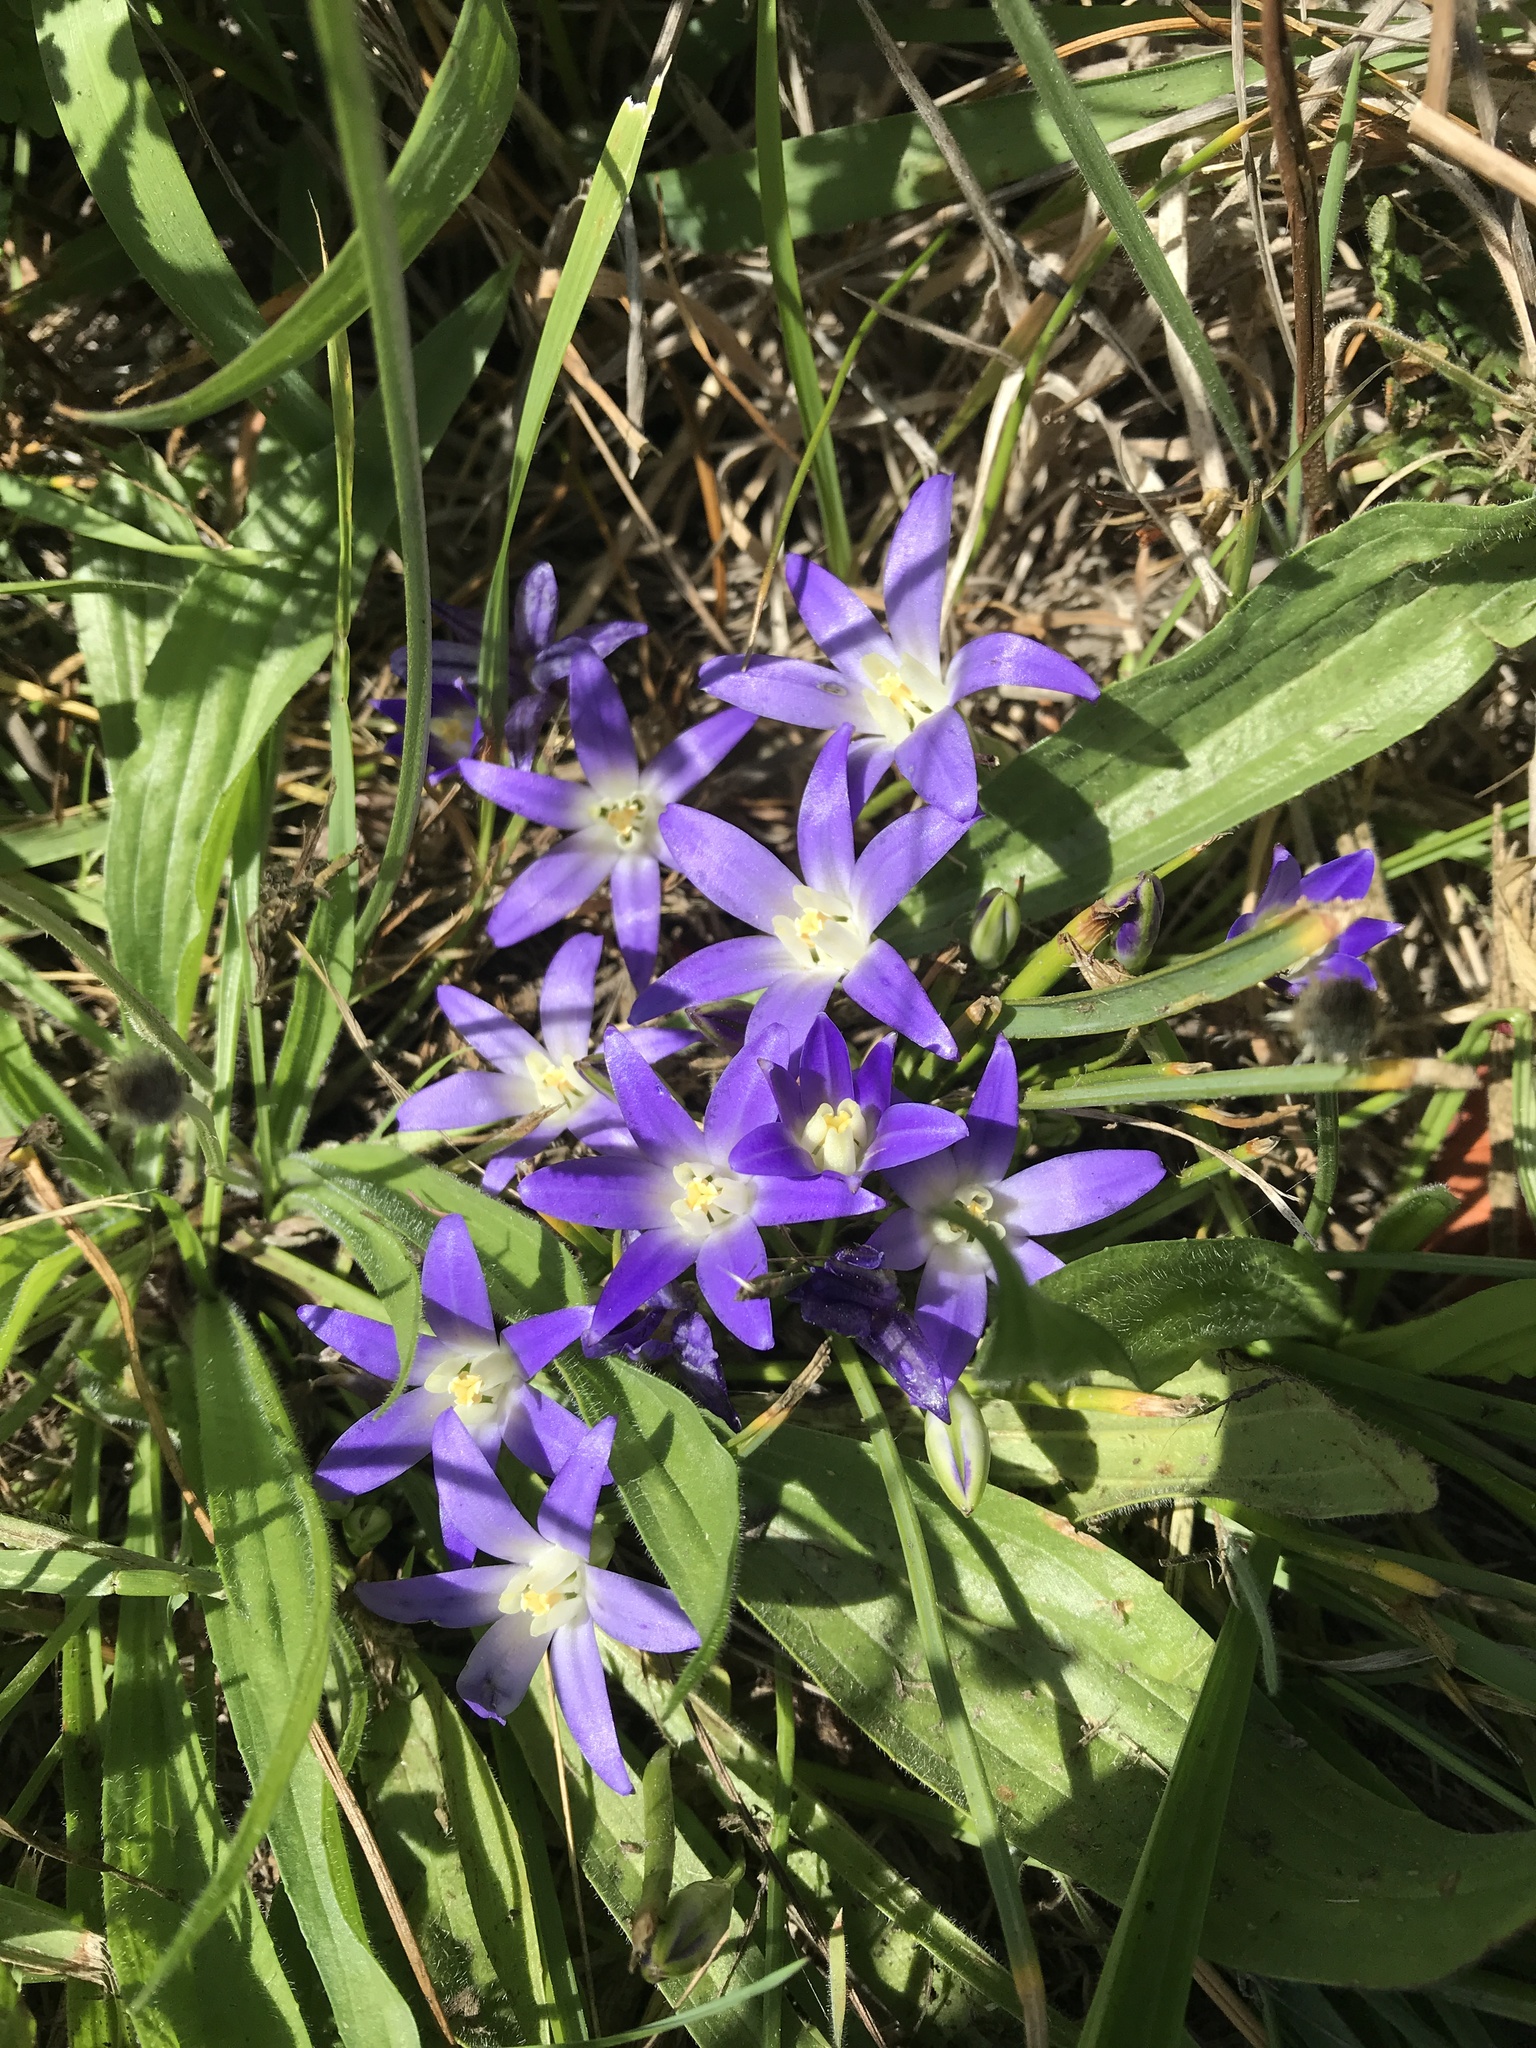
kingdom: Plantae
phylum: Tracheophyta
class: Liliopsida
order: Asparagales
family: Asparagaceae
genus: Brodiaea
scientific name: Brodiaea terrestris
